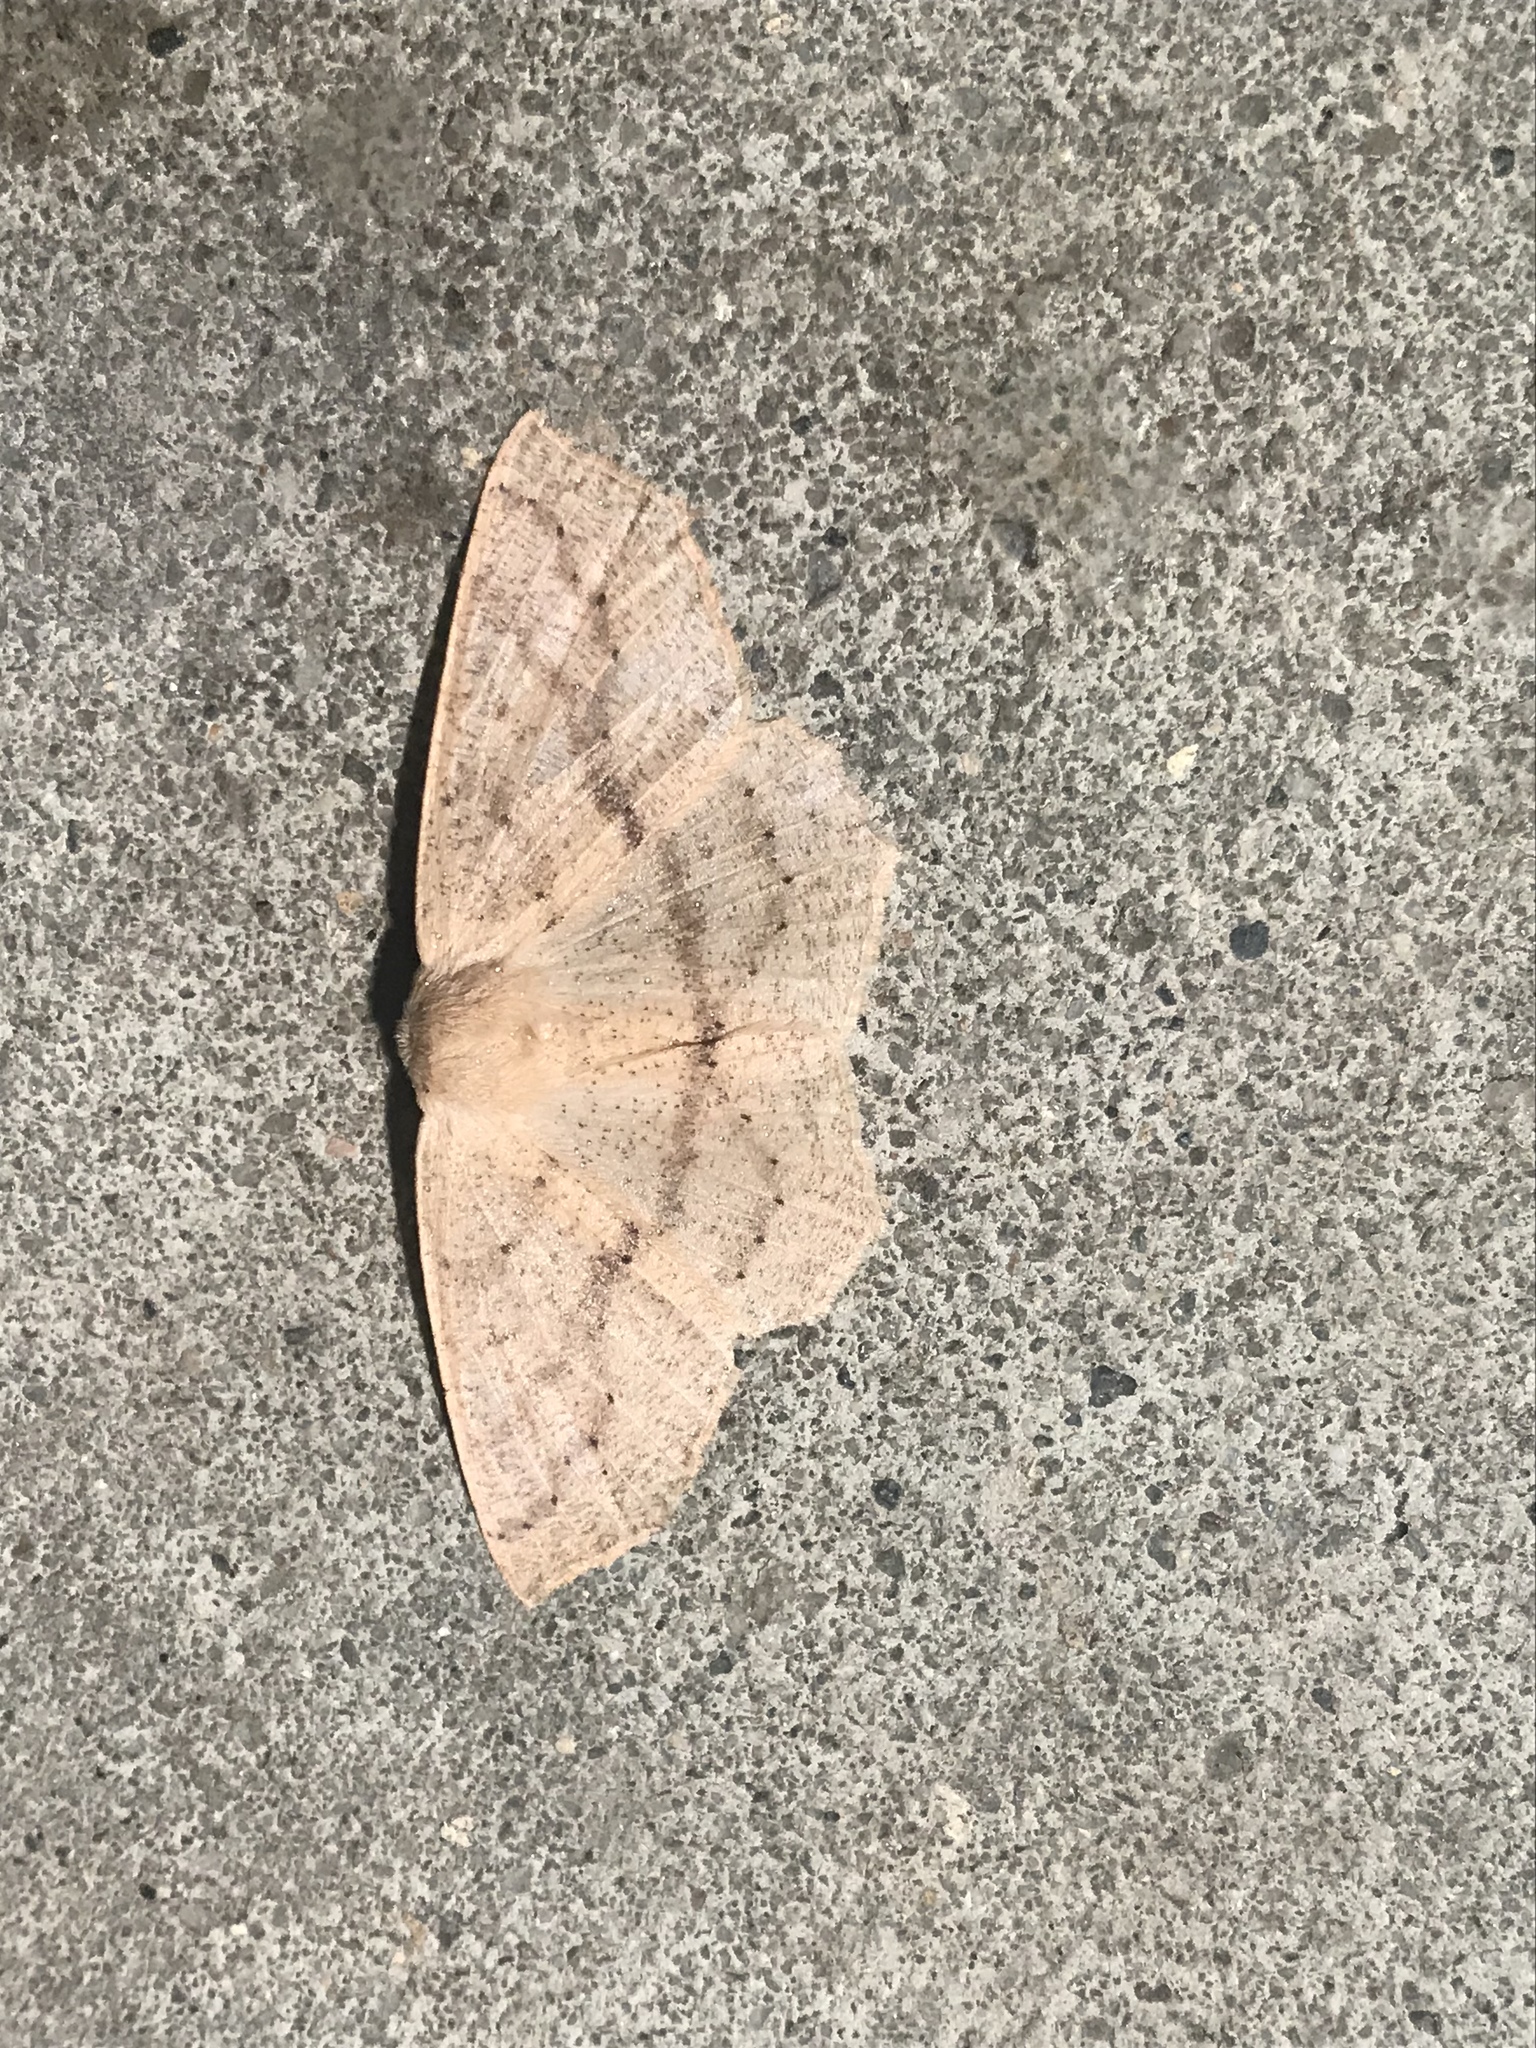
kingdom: Animalia
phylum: Arthropoda
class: Insecta
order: Lepidoptera
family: Geometridae
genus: Sabulodes
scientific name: Sabulodes aegrotata
